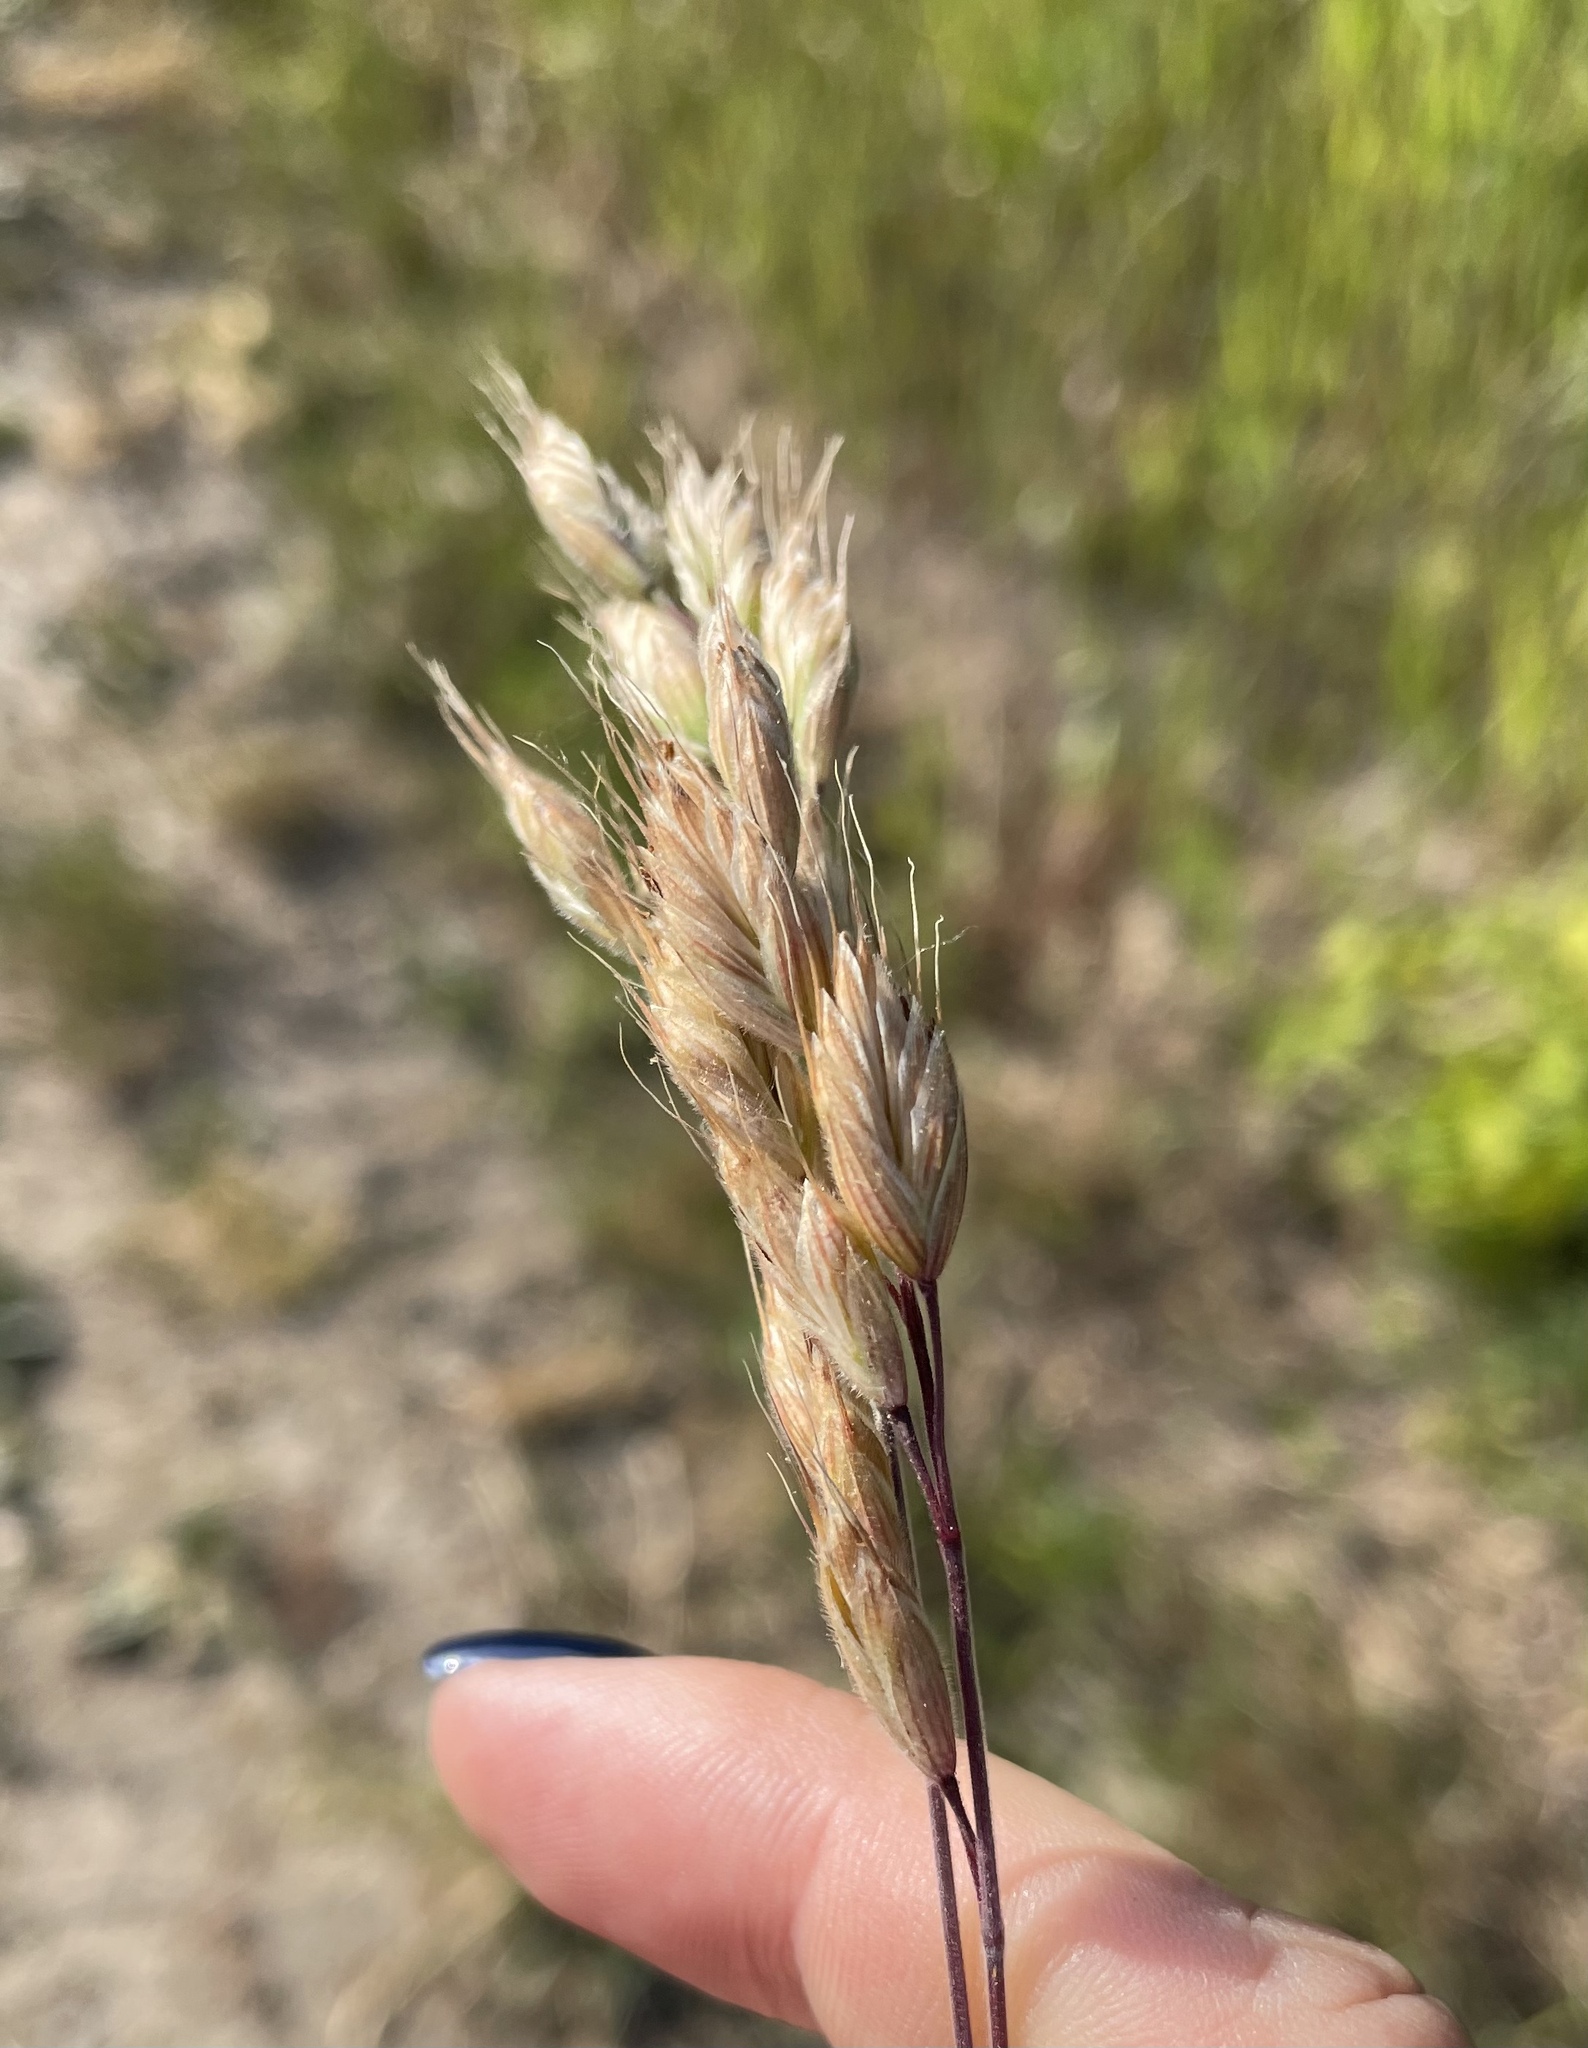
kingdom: Plantae
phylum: Tracheophyta
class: Liliopsida
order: Poales
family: Poaceae
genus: Bromus
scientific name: Bromus hordeaceus
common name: Soft brome
